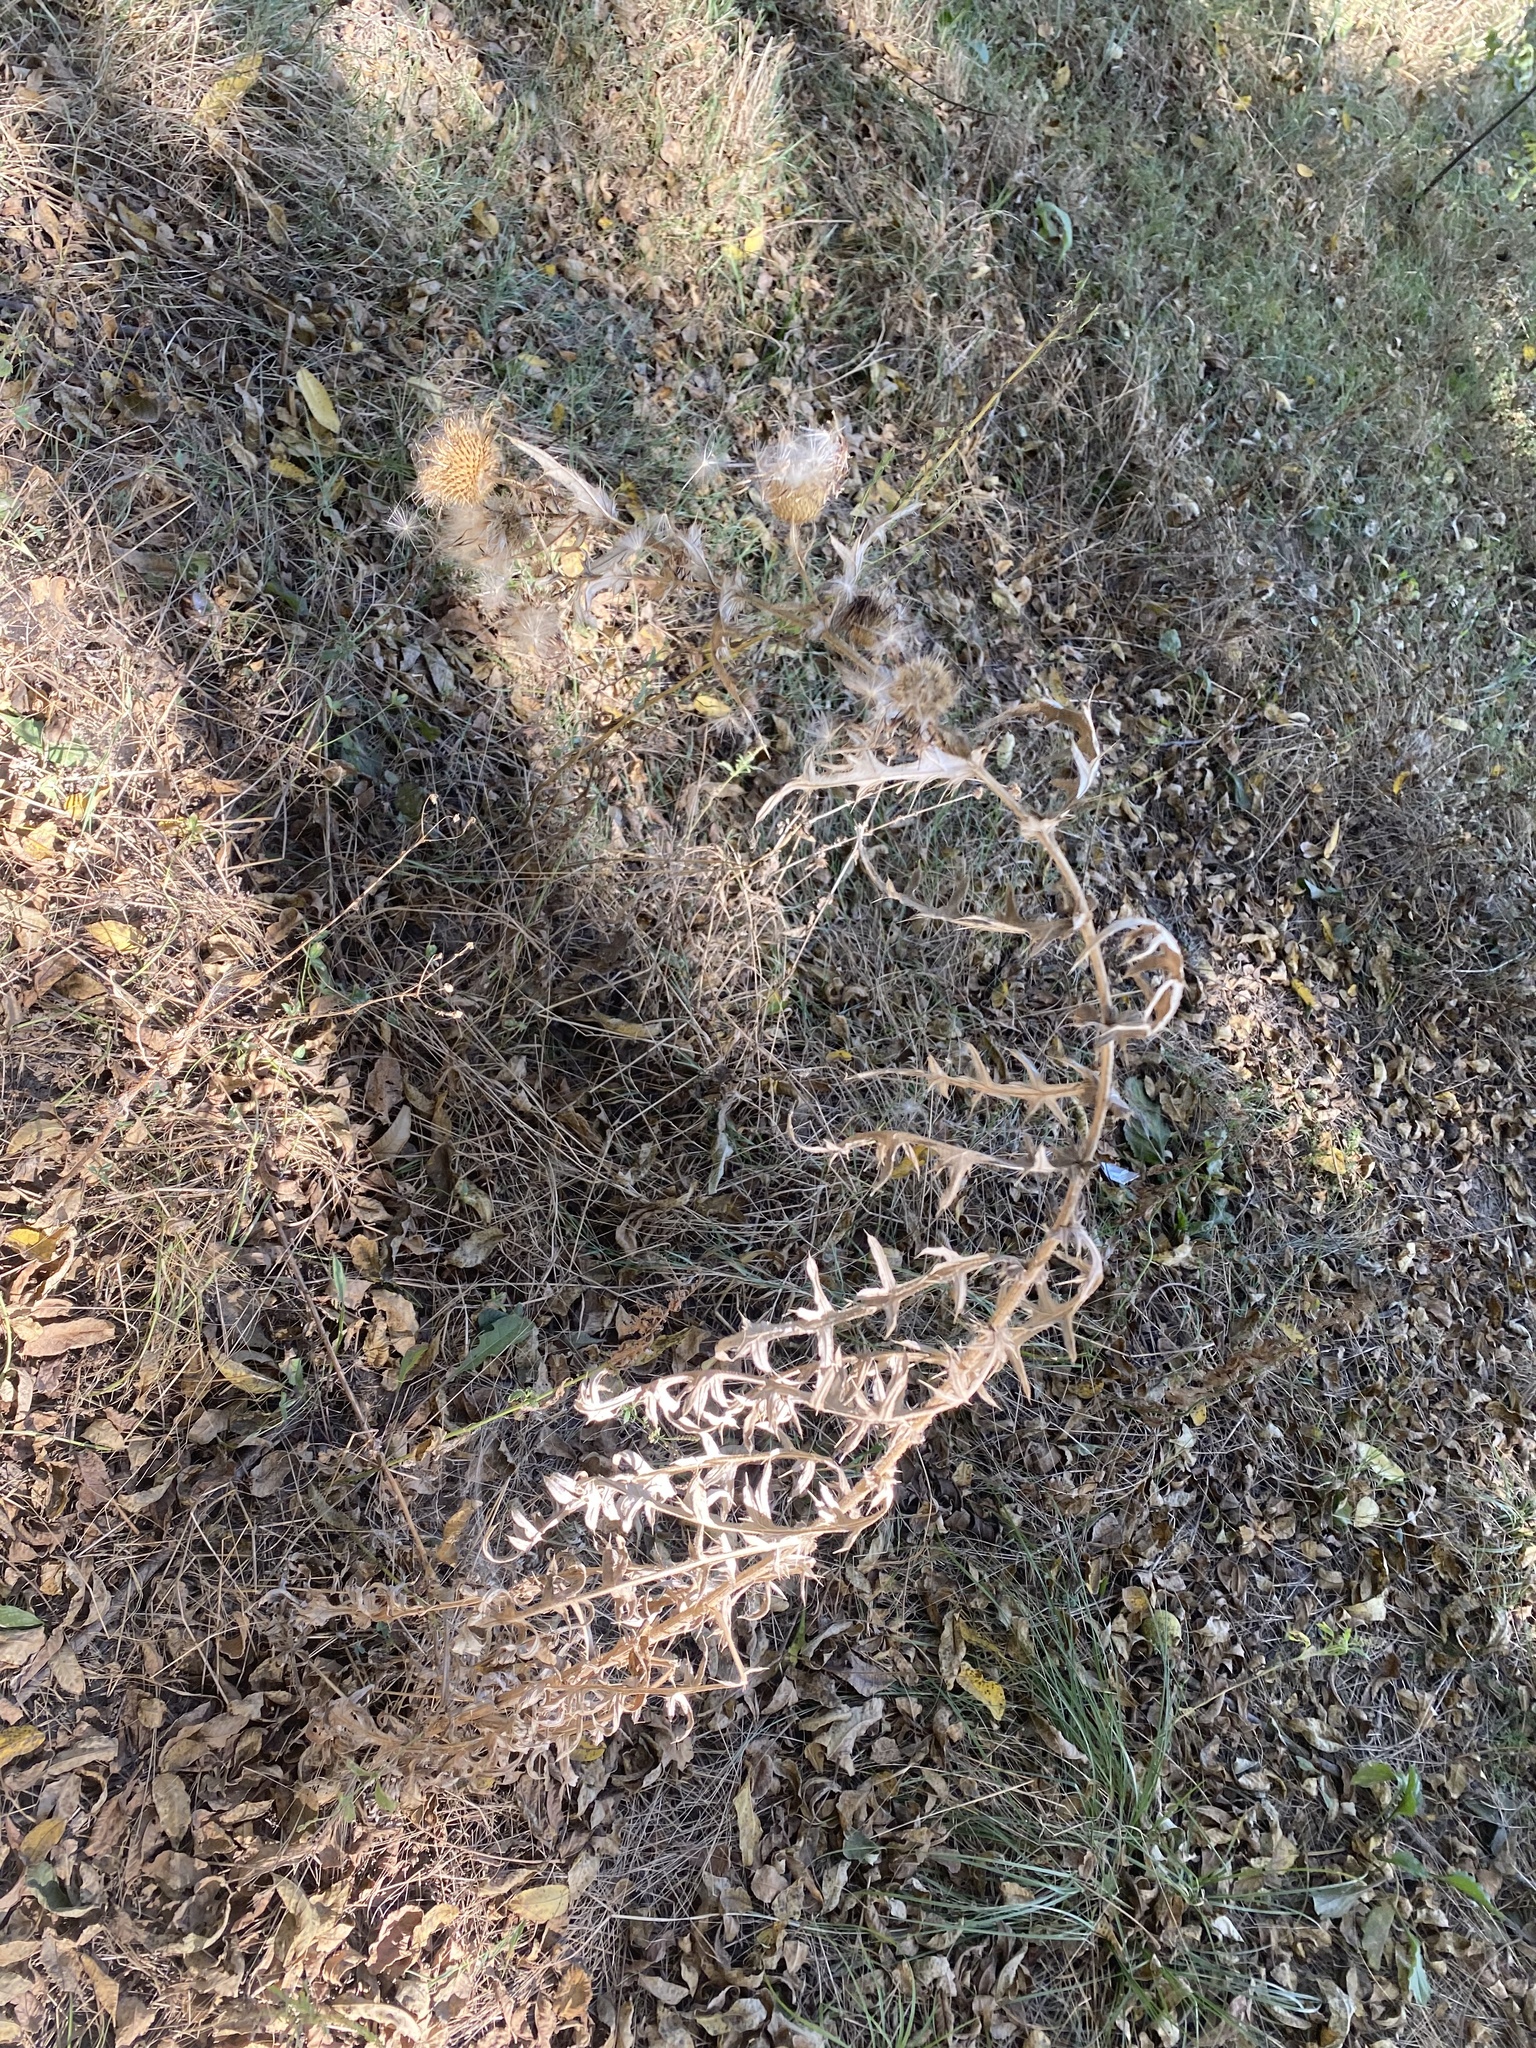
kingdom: Plantae
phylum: Tracheophyta
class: Magnoliopsida
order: Asterales
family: Asteraceae
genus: Cirsium
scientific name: Cirsium serrulatum
